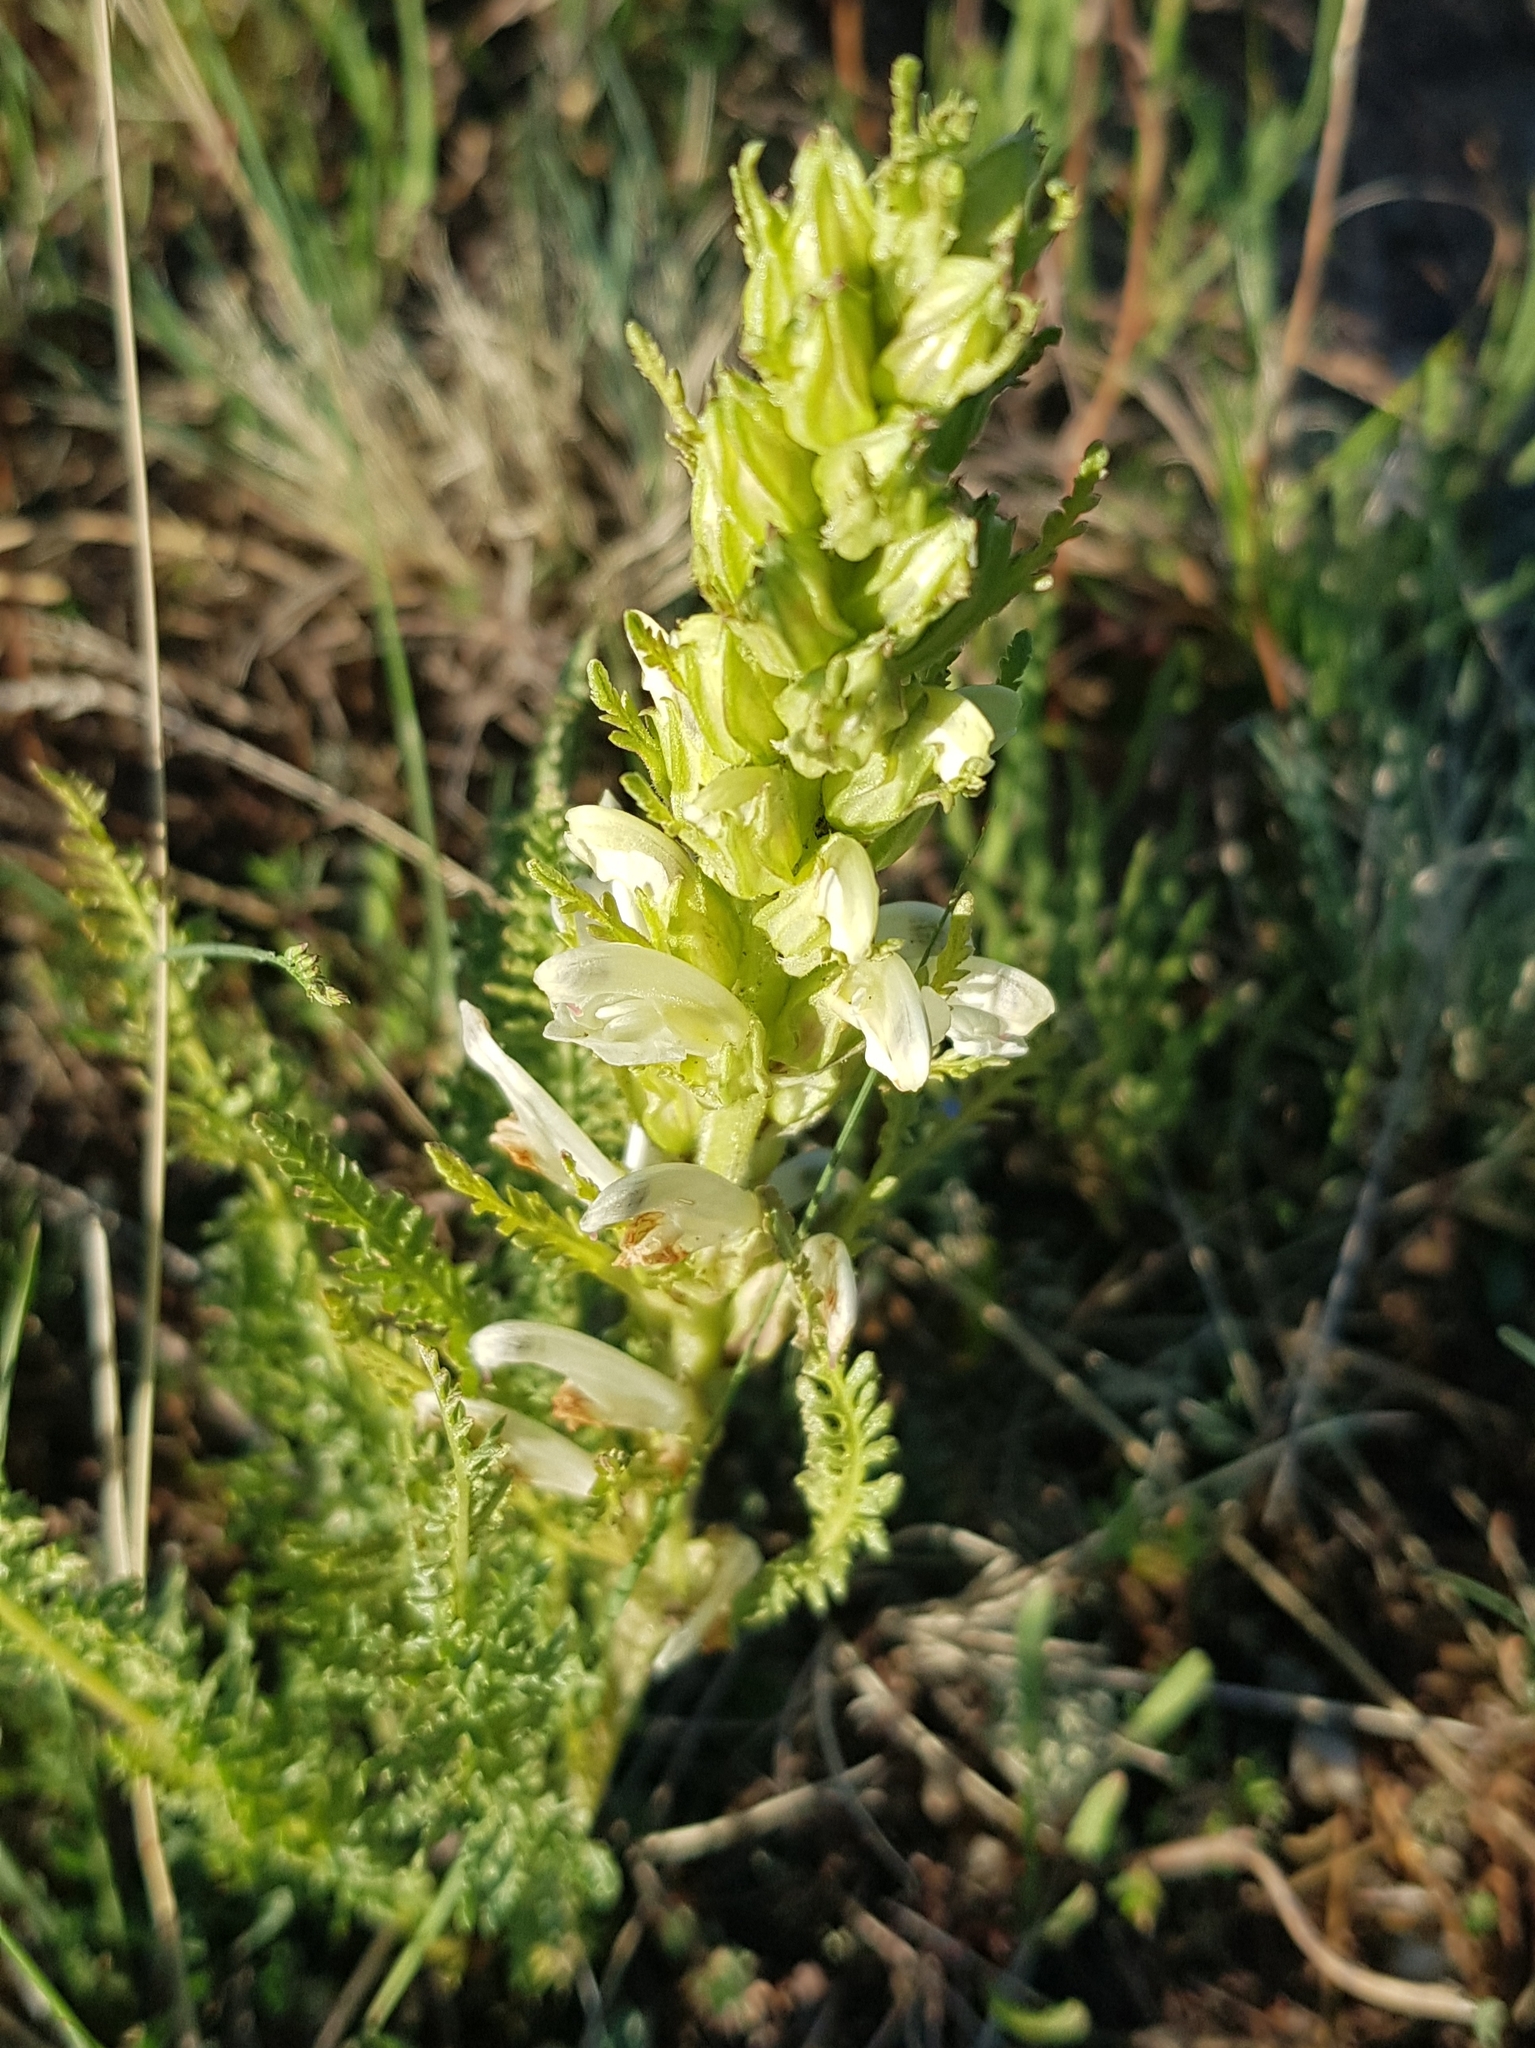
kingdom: Plantae
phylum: Tracheophyta
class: Magnoliopsida
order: Lamiales
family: Orobanchaceae
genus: Pedicularis
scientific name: Pedicularis flava
